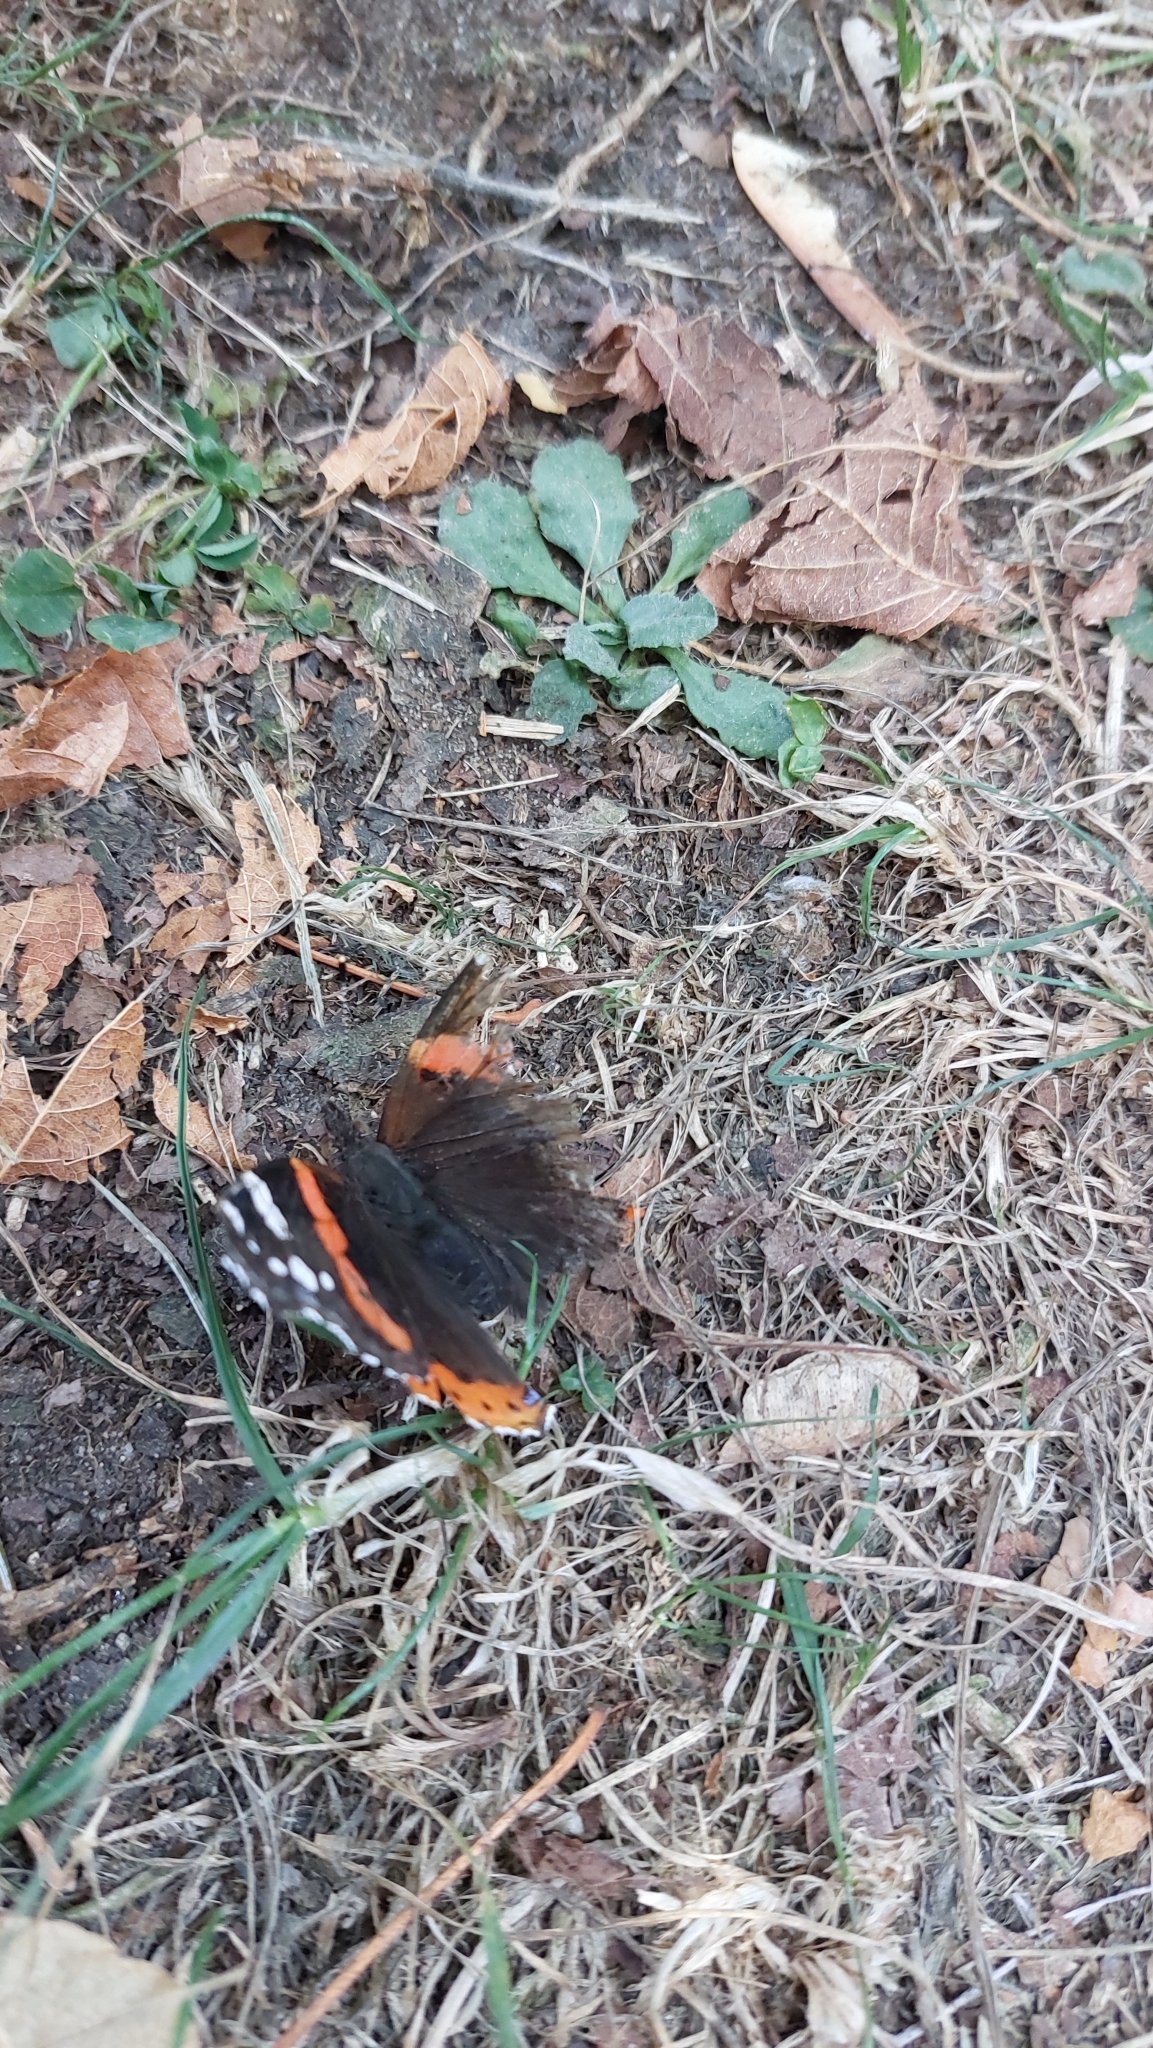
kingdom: Animalia
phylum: Arthropoda
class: Insecta
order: Lepidoptera
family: Nymphalidae
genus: Vanessa
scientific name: Vanessa atalanta
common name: Red admiral
